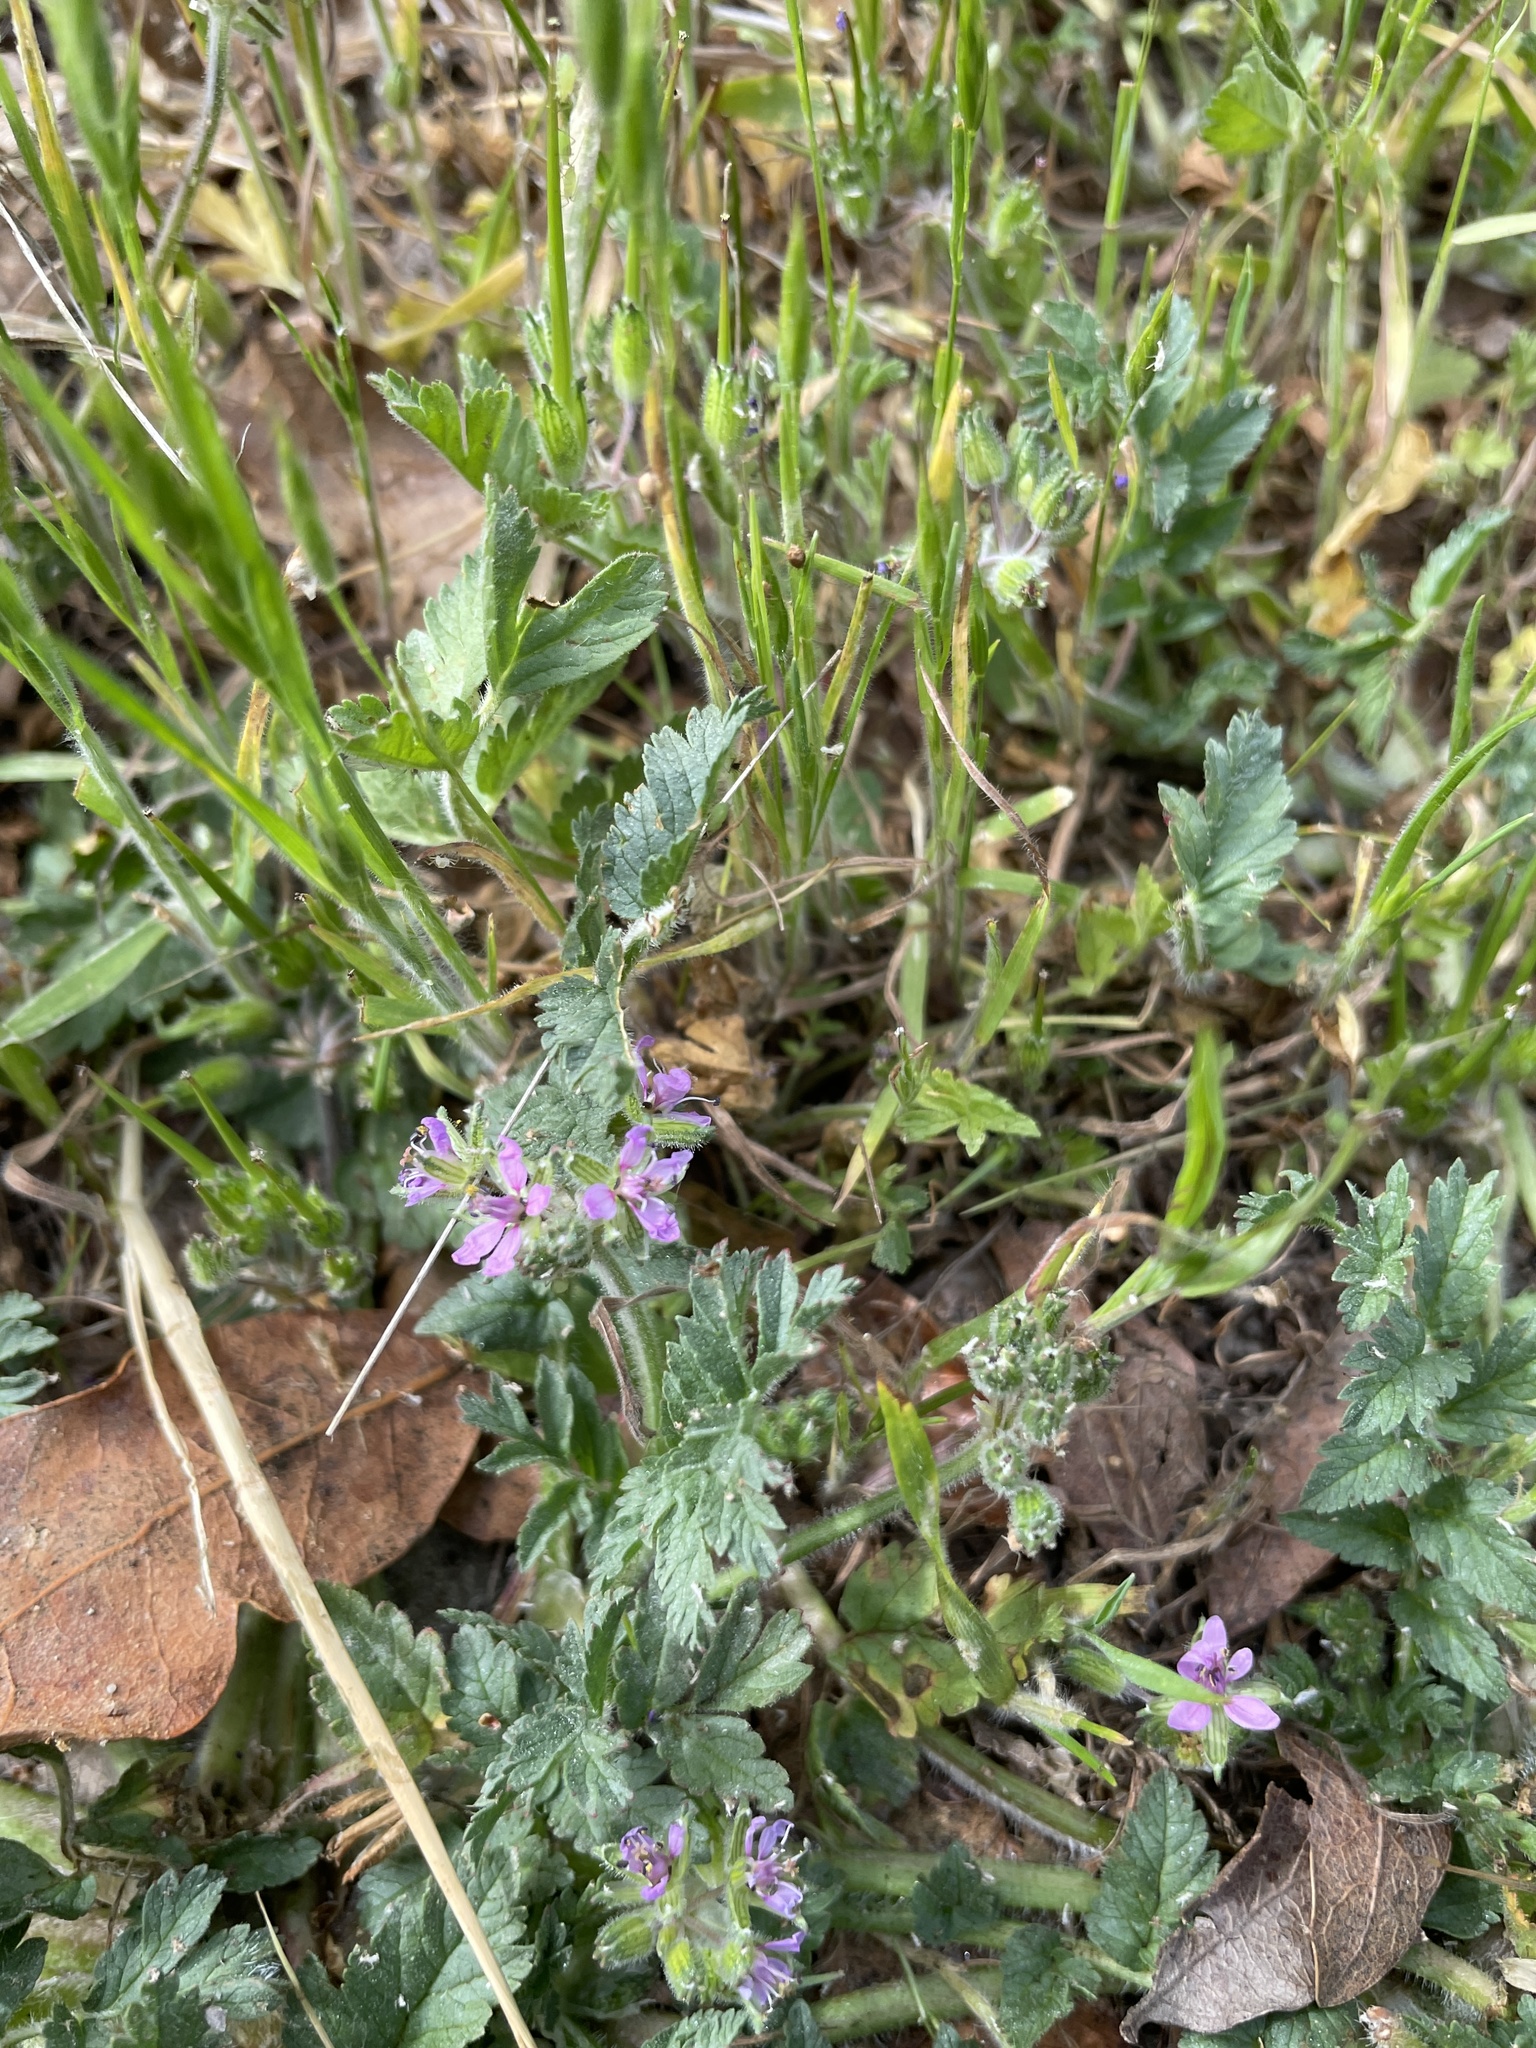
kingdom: Plantae
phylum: Tracheophyta
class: Magnoliopsida
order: Geraniales
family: Geraniaceae
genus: Erodium
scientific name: Erodium moschatum
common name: Musk stork's-bill
